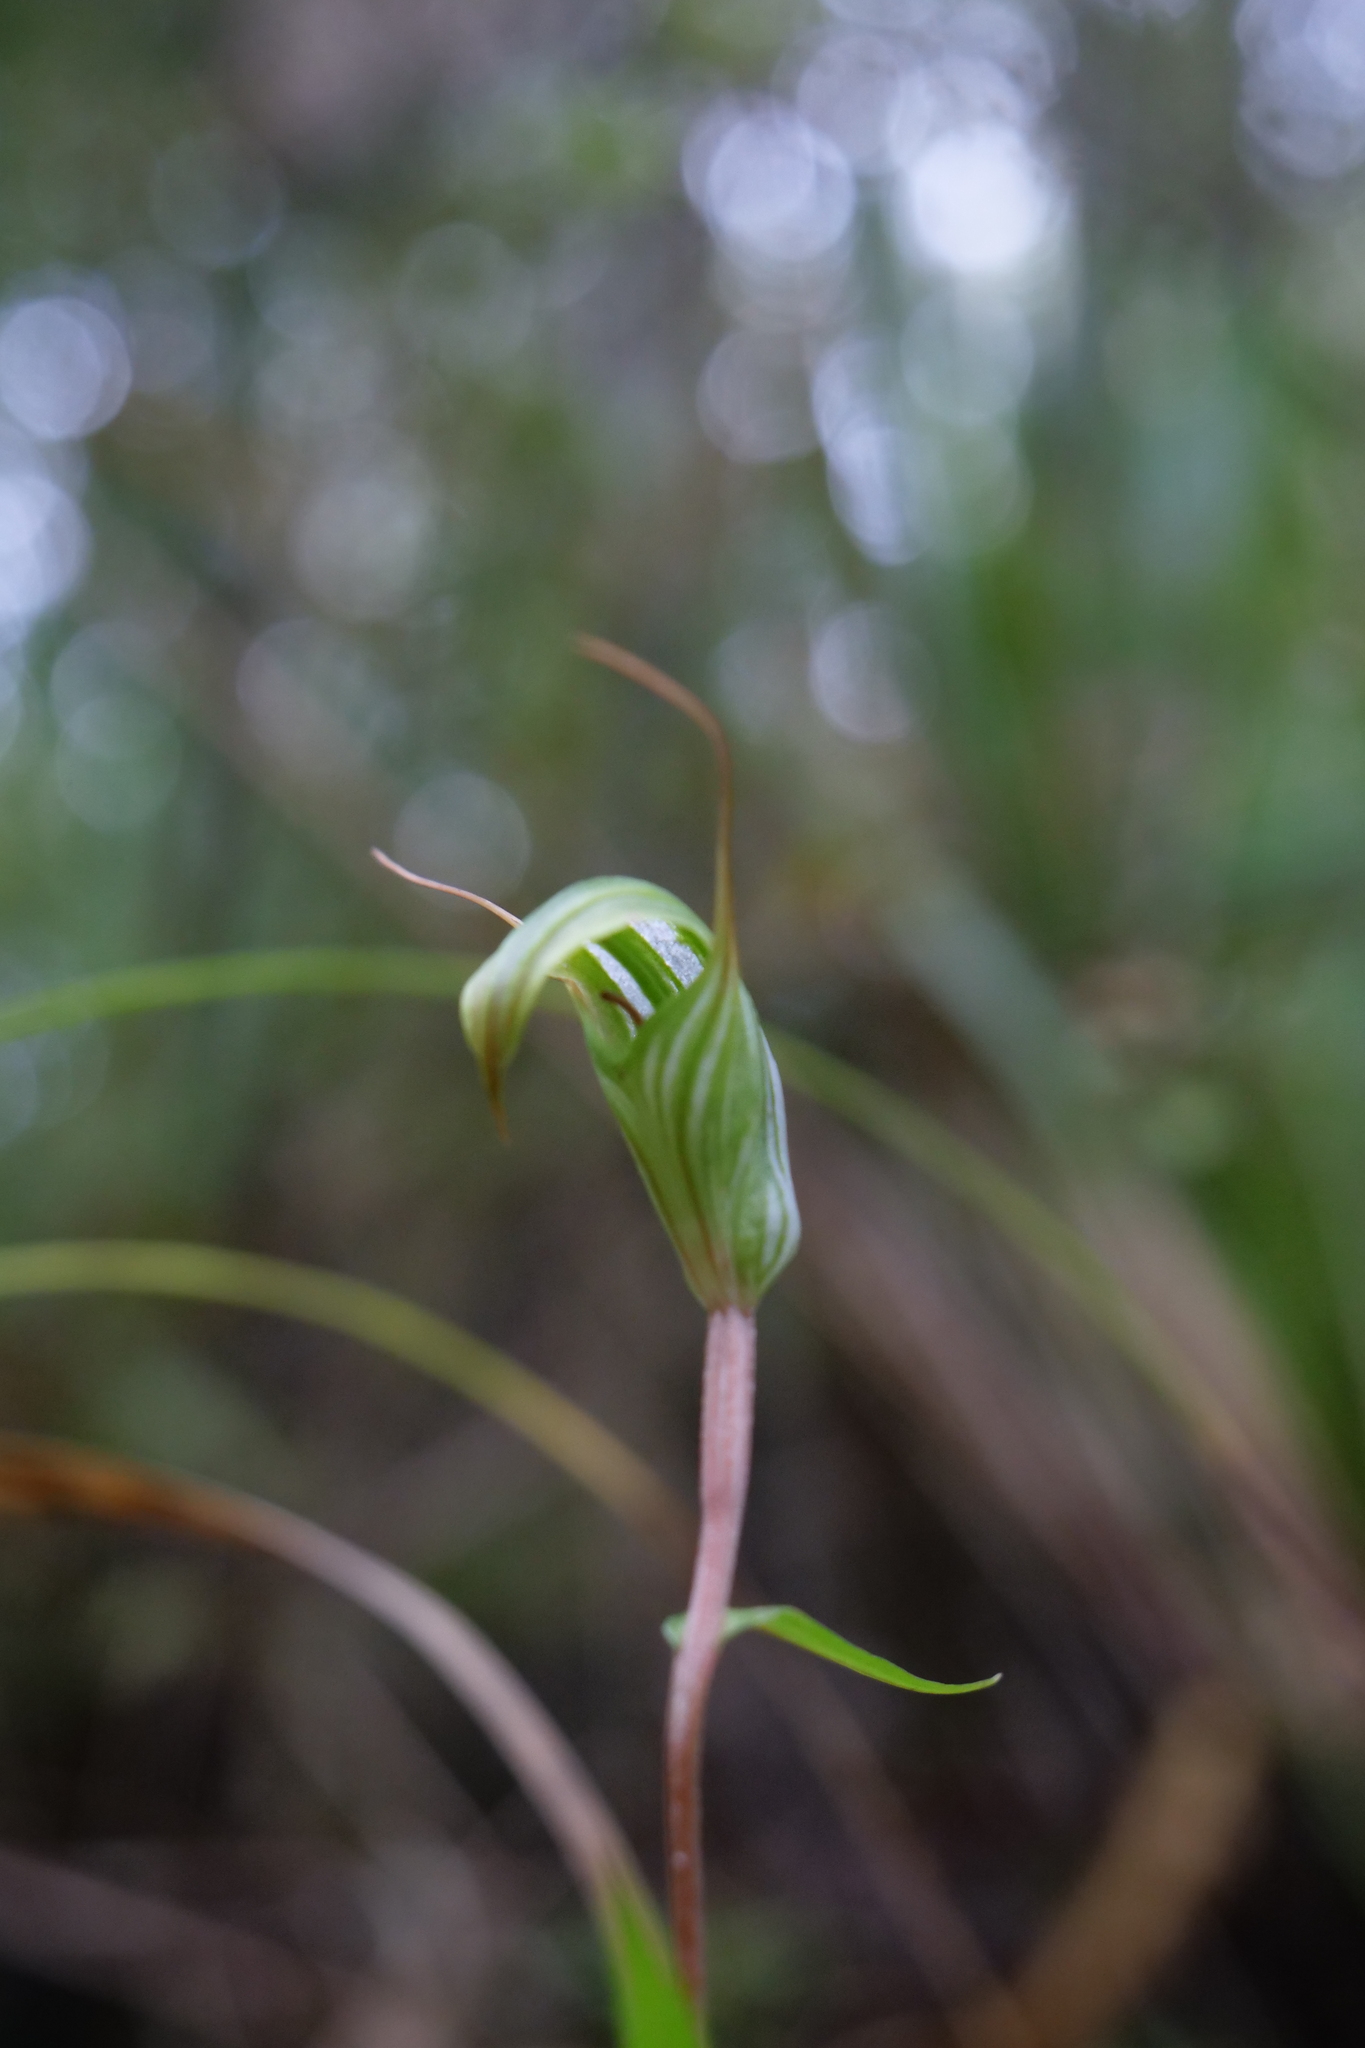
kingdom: Plantae
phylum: Tracheophyta
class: Liliopsida
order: Asparagales
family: Orchidaceae
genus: Pterostylis
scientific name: Pterostylis alobula
